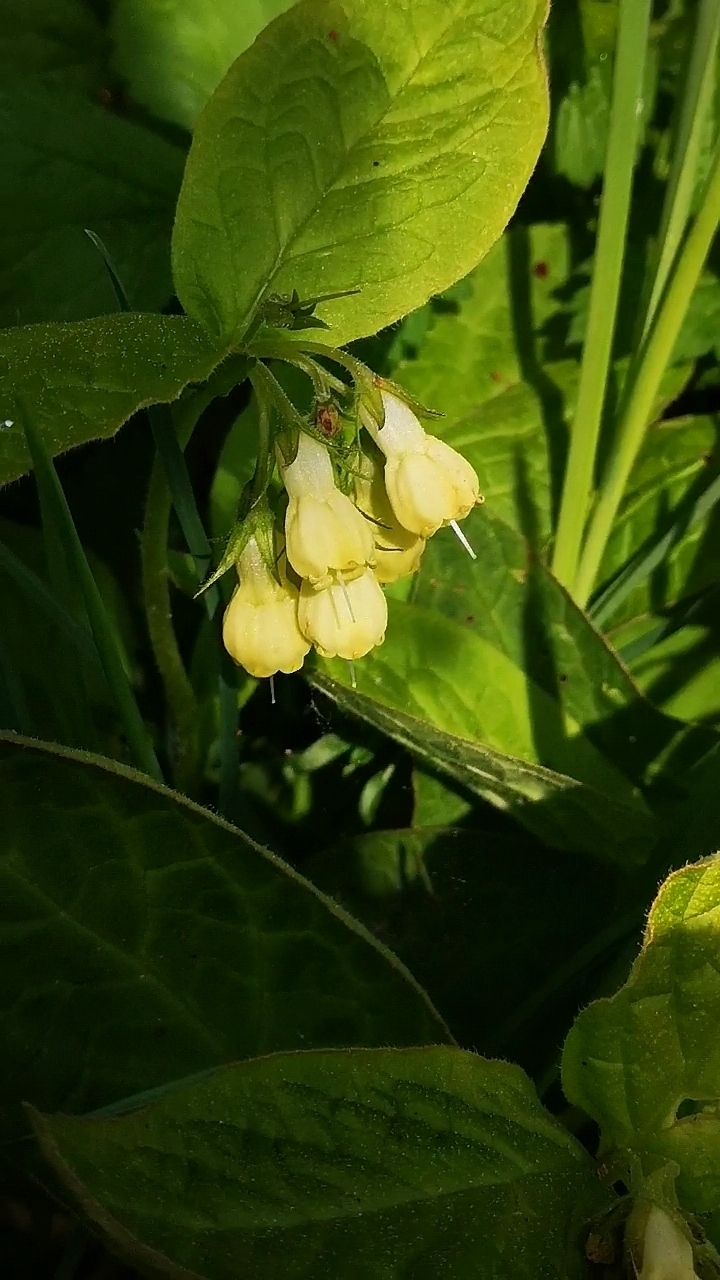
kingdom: Plantae
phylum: Tracheophyta
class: Magnoliopsida
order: Boraginales
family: Boraginaceae
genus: Symphytum
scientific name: Symphytum tuberosum
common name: Tuberous comfrey
